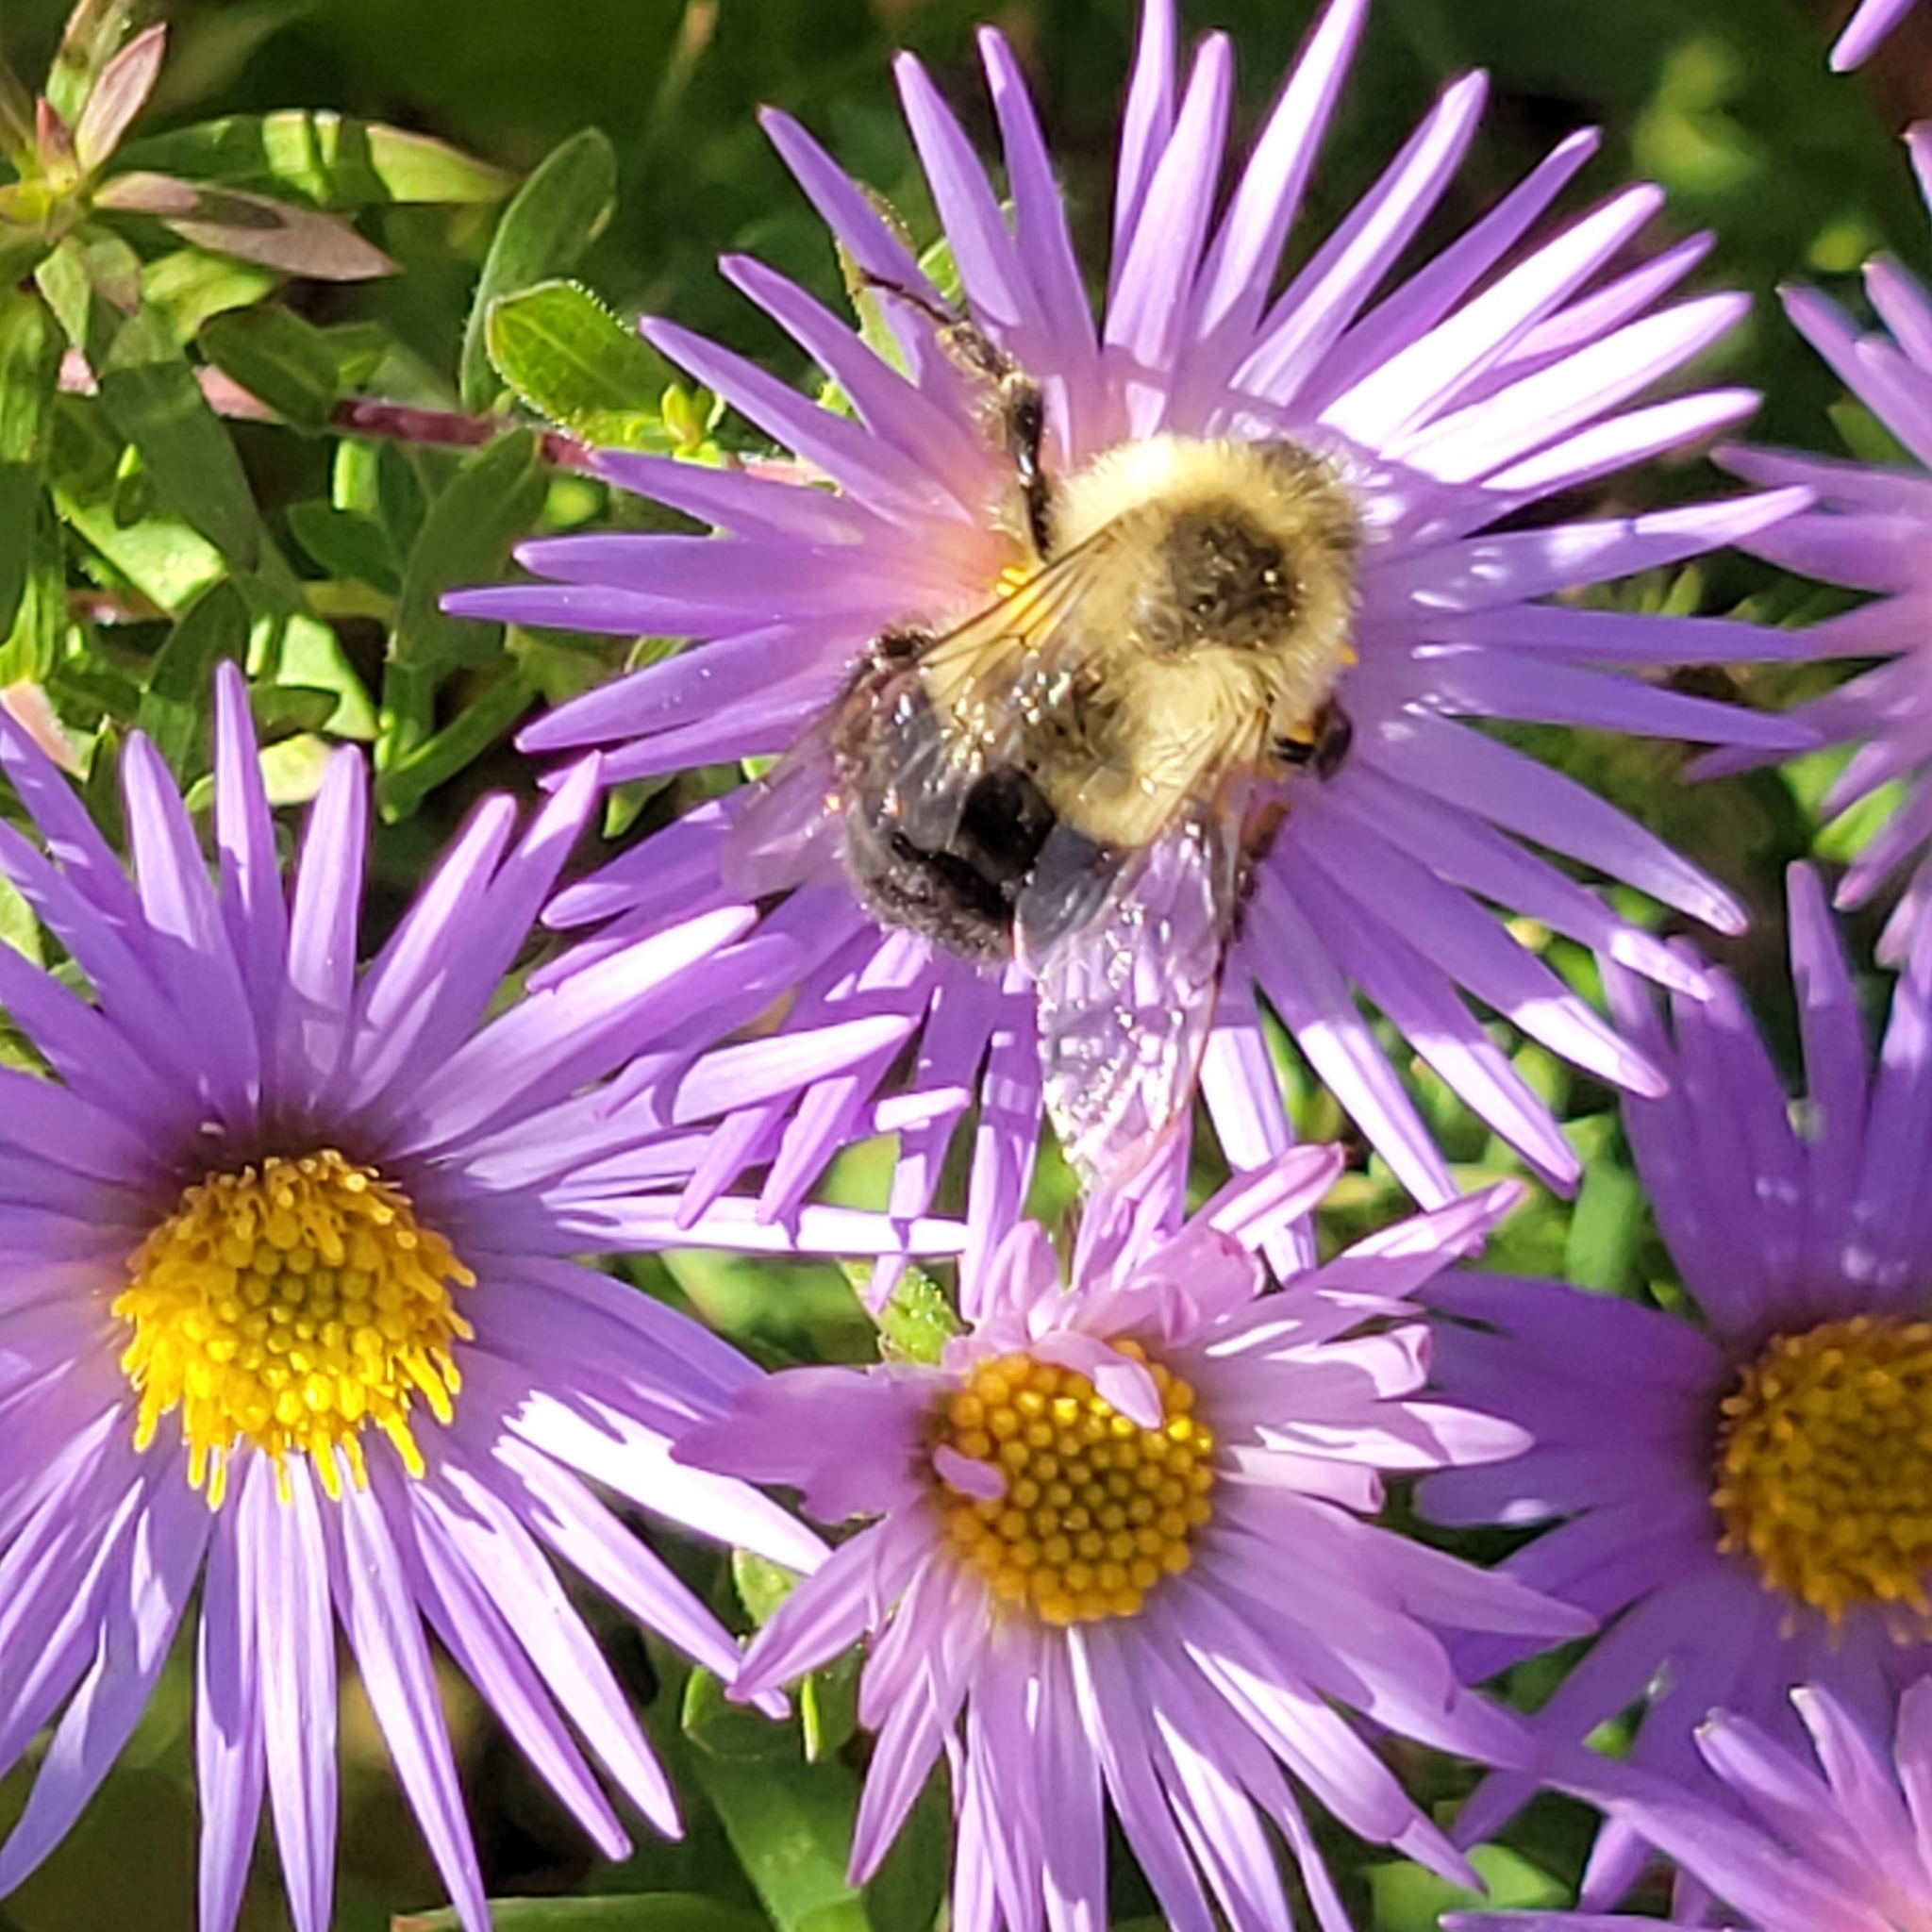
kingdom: Animalia
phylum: Arthropoda
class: Insecta
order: Hymenoptera
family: Apidae
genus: Bombus
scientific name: Bombus impatiens
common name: Common eastern bumble bee
